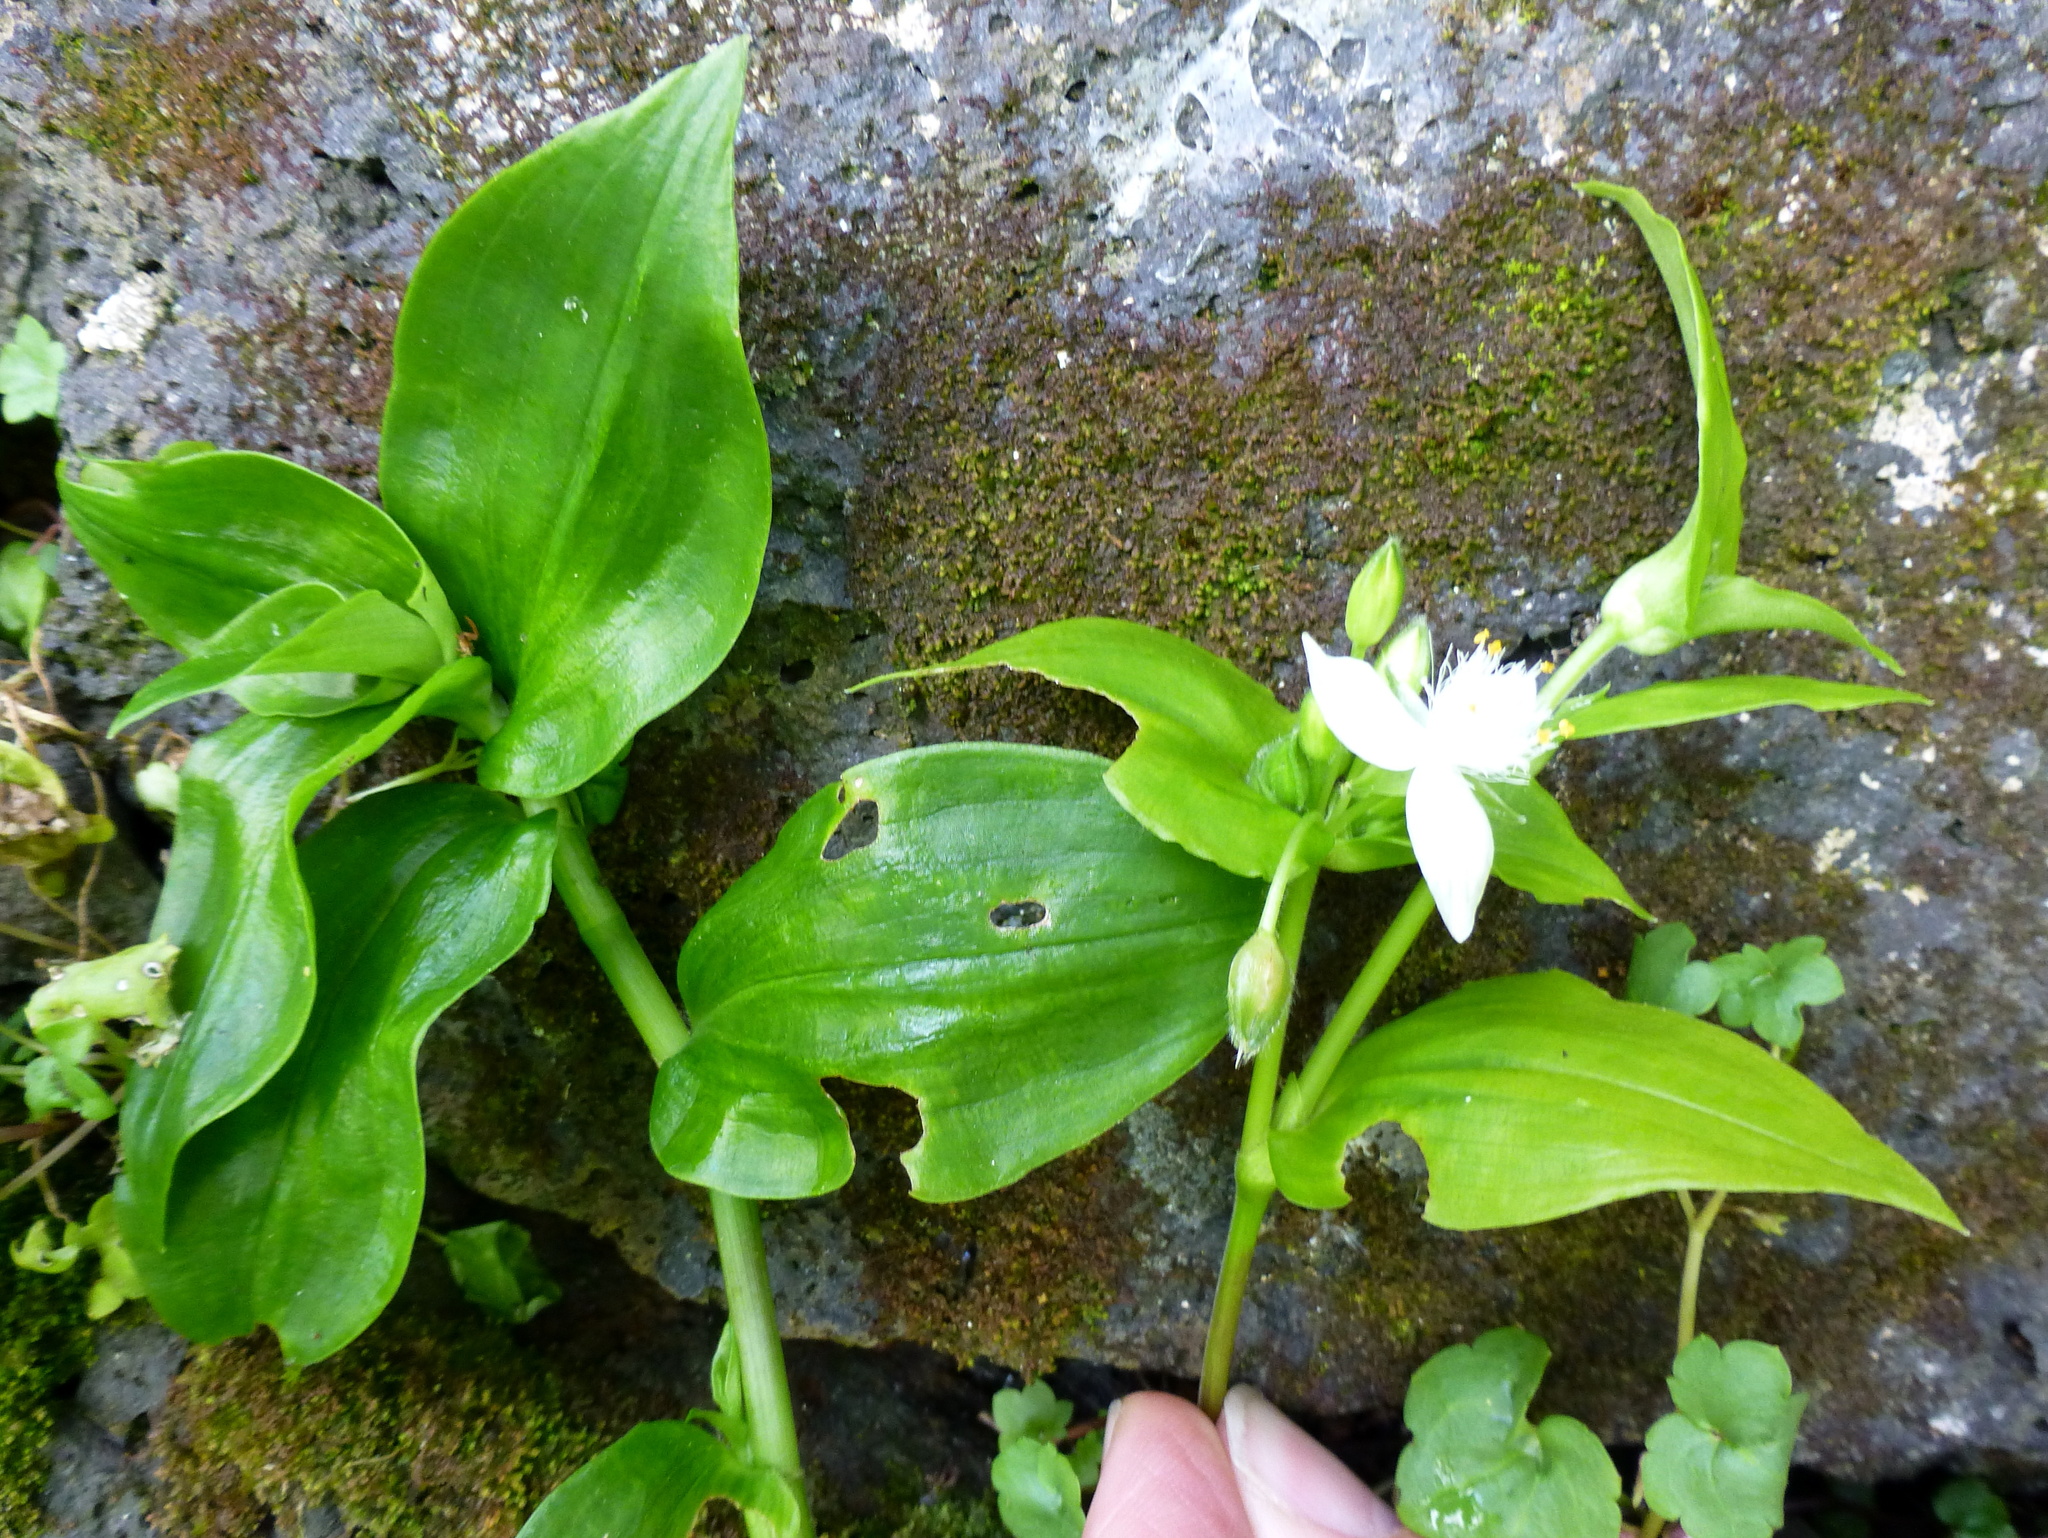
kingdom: Plantae
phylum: Tracheophyta
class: Liliopsida
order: Commelinales
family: Commelinaceae
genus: Tradescantia
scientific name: Tradescantia fluminensis
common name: Wandering-jew
